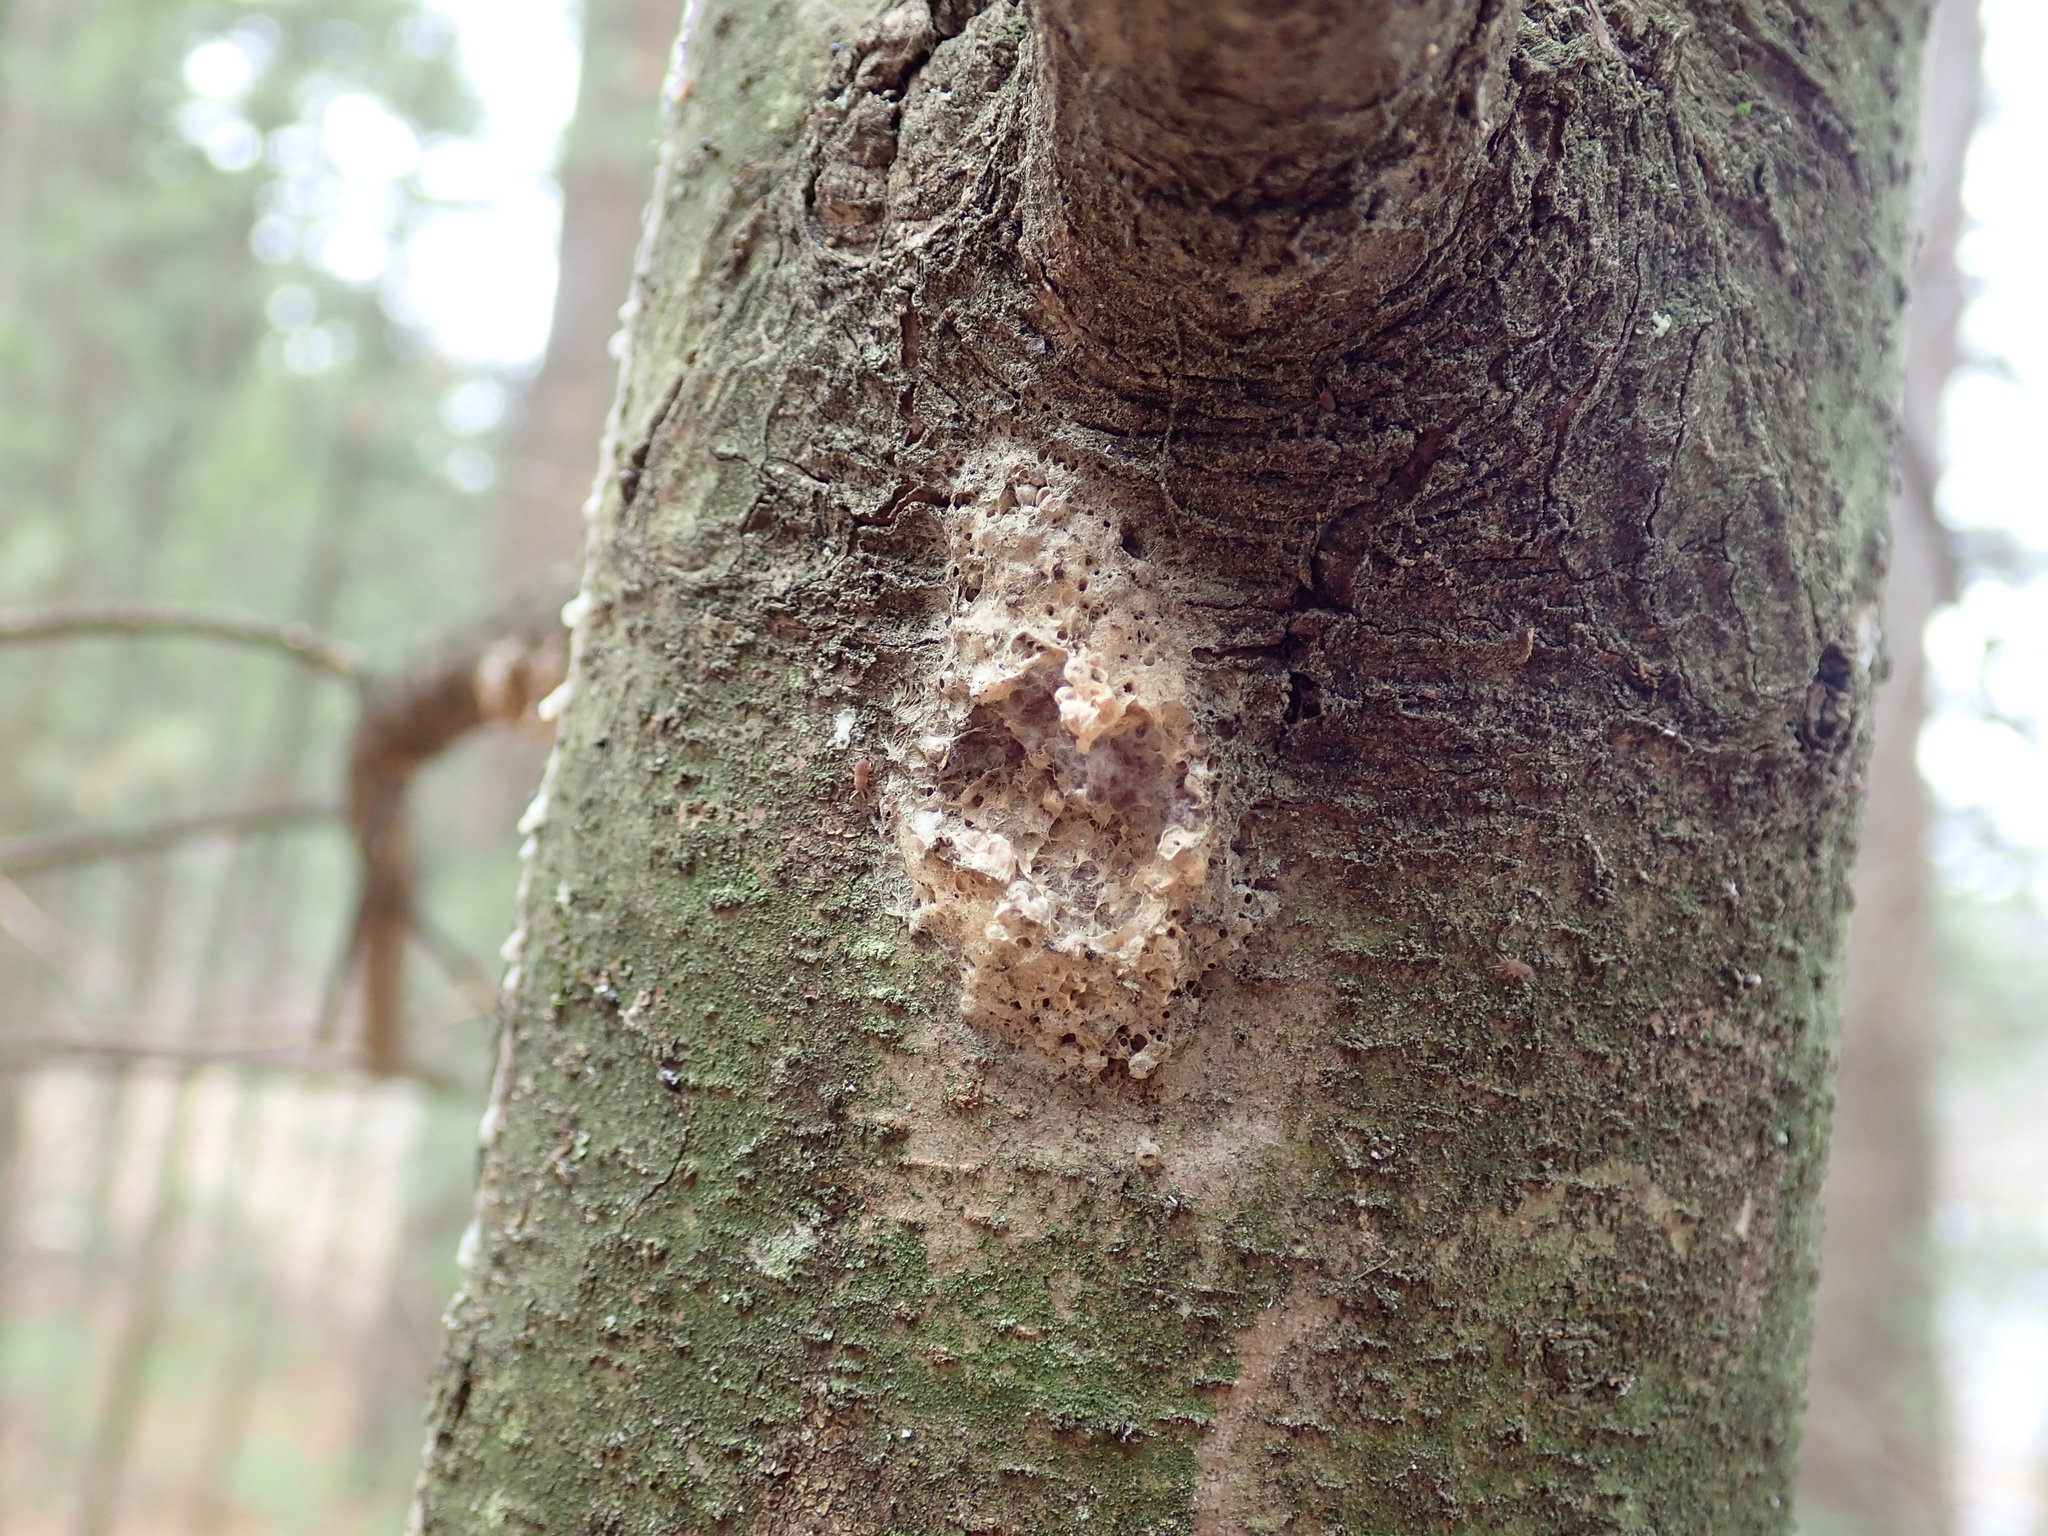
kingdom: Animalia
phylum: Arthropoda
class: Insecta
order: Lepidoptera
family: Erebidae
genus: Lymantria
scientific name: Lymantria dispar
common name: Gypsy moth
